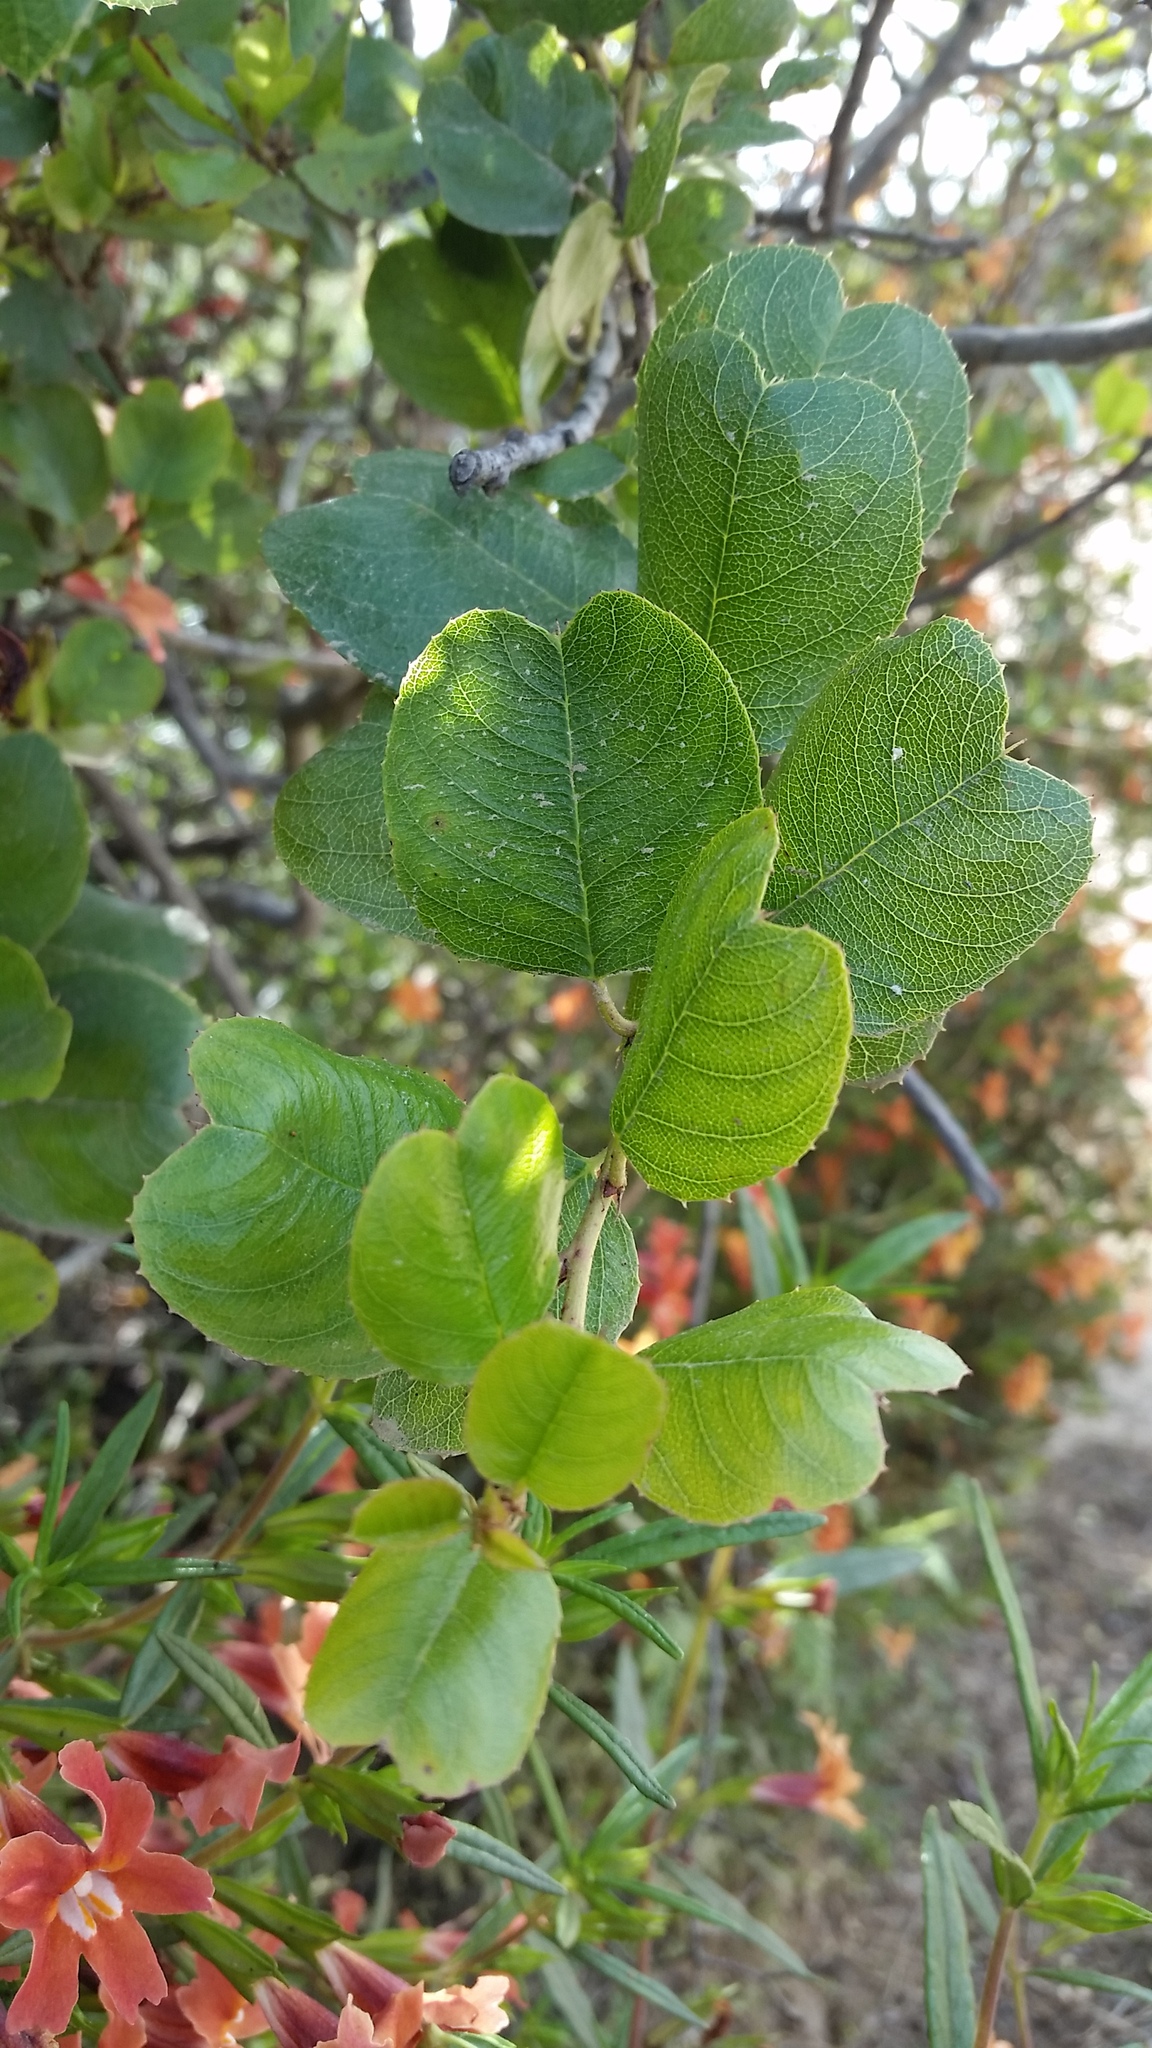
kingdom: Plantae
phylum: Tracheophyta
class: Magnoliopsida
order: Rosales
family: Rhamnaceae
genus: Endotropis
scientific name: Endotropis crocea
